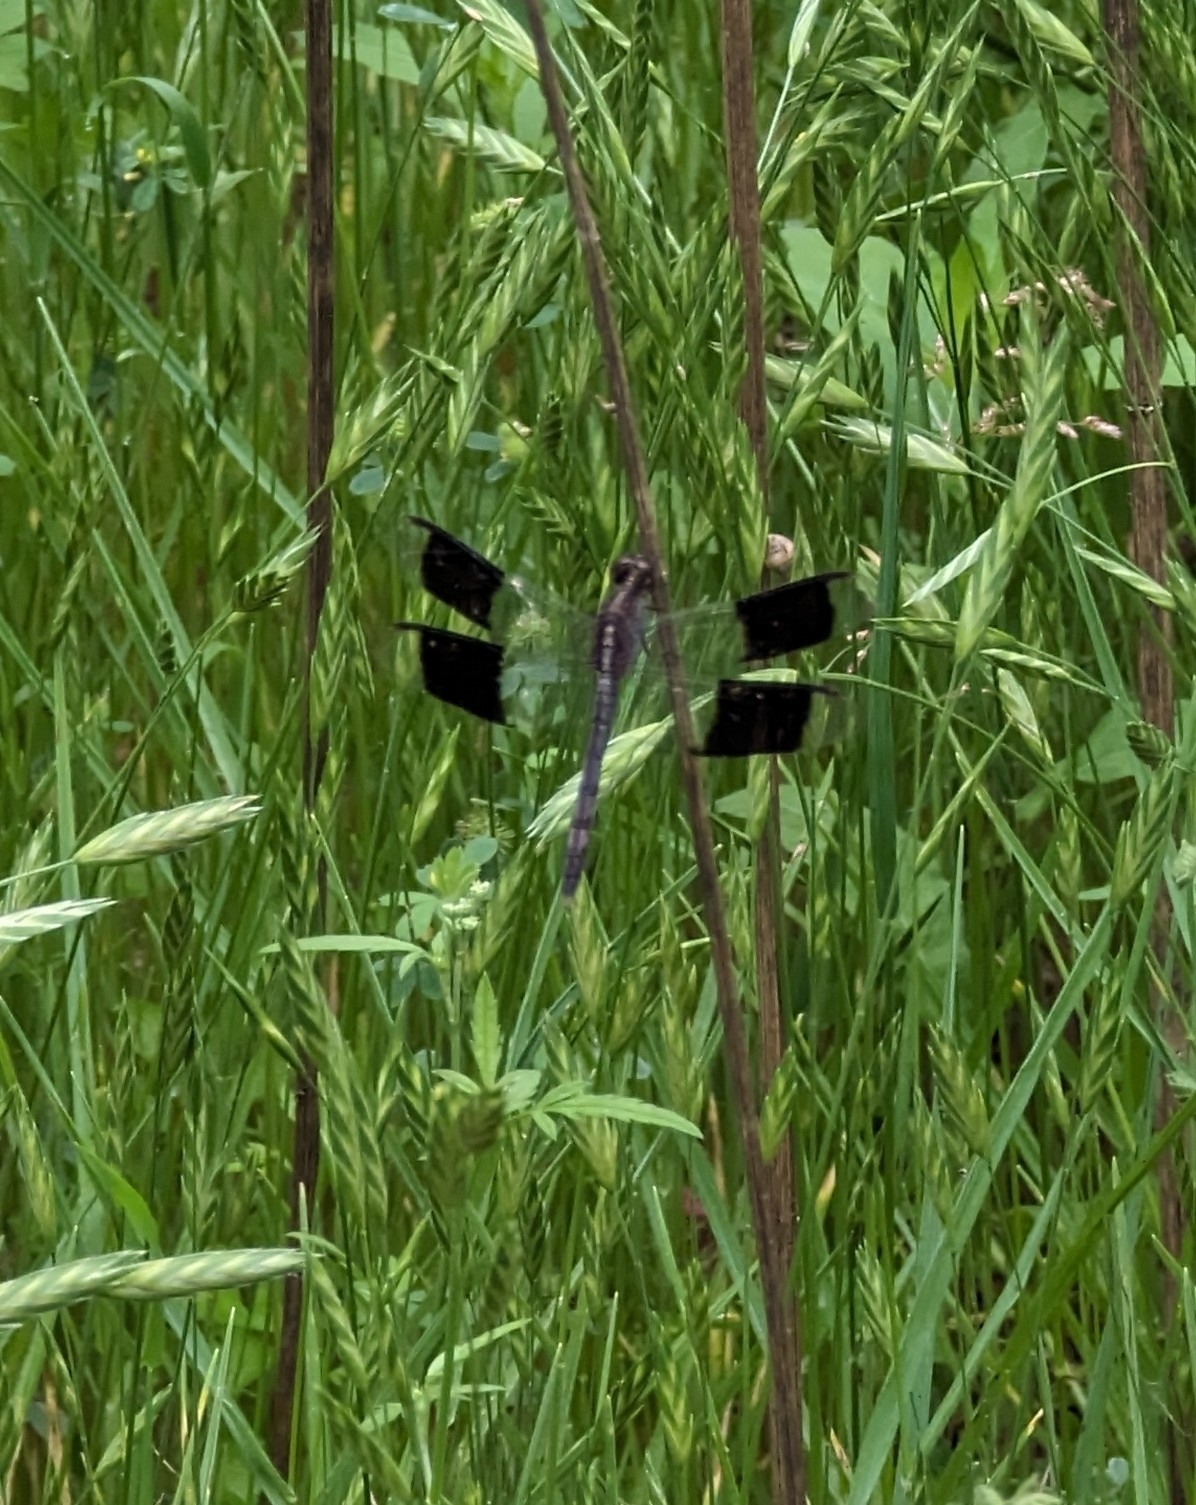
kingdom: Animalia
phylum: Arthropoda
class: Insecta
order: Odonata
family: Libellulidae
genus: Erythrodiplax
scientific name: Erythrodiplax umbrata
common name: Band-winged dragonlet
